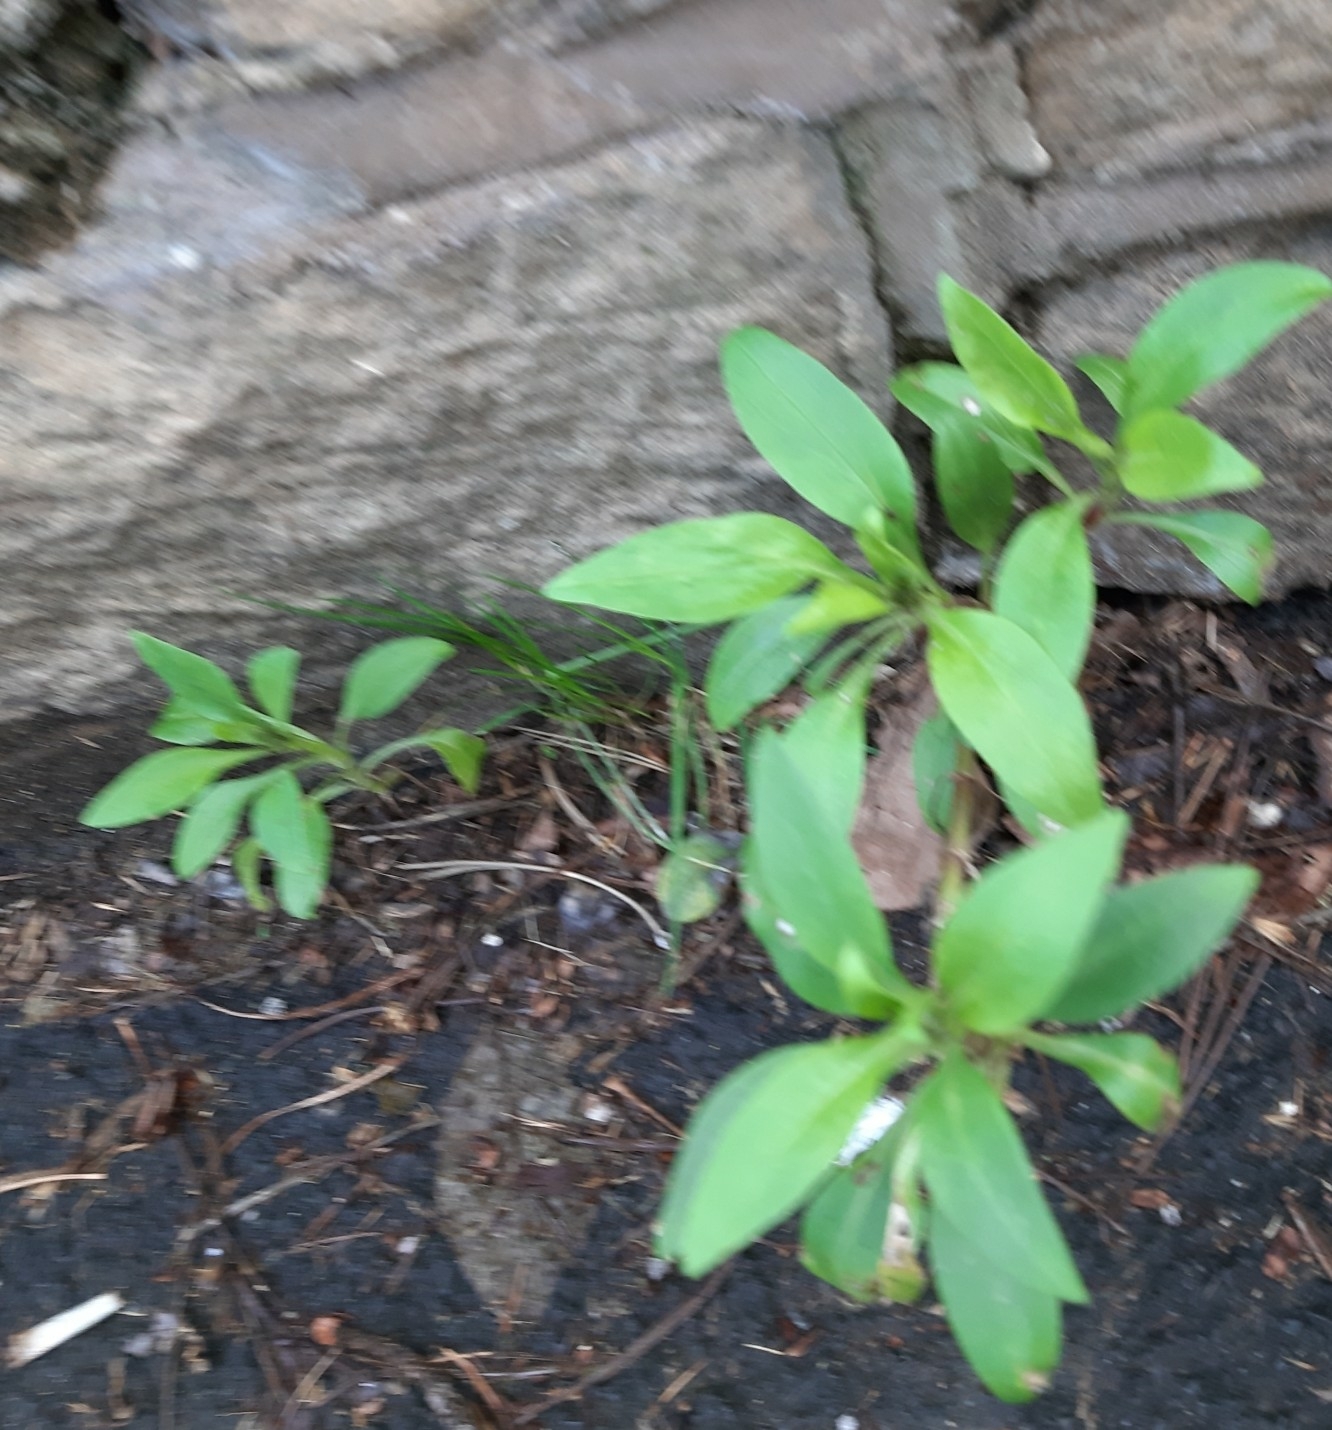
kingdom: Plantae
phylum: Tracheophyta
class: Magnoliopsida
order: Dipsacales
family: Caprifoliaceae
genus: Centranthus
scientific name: Centranthus ruber
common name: Red valerian
